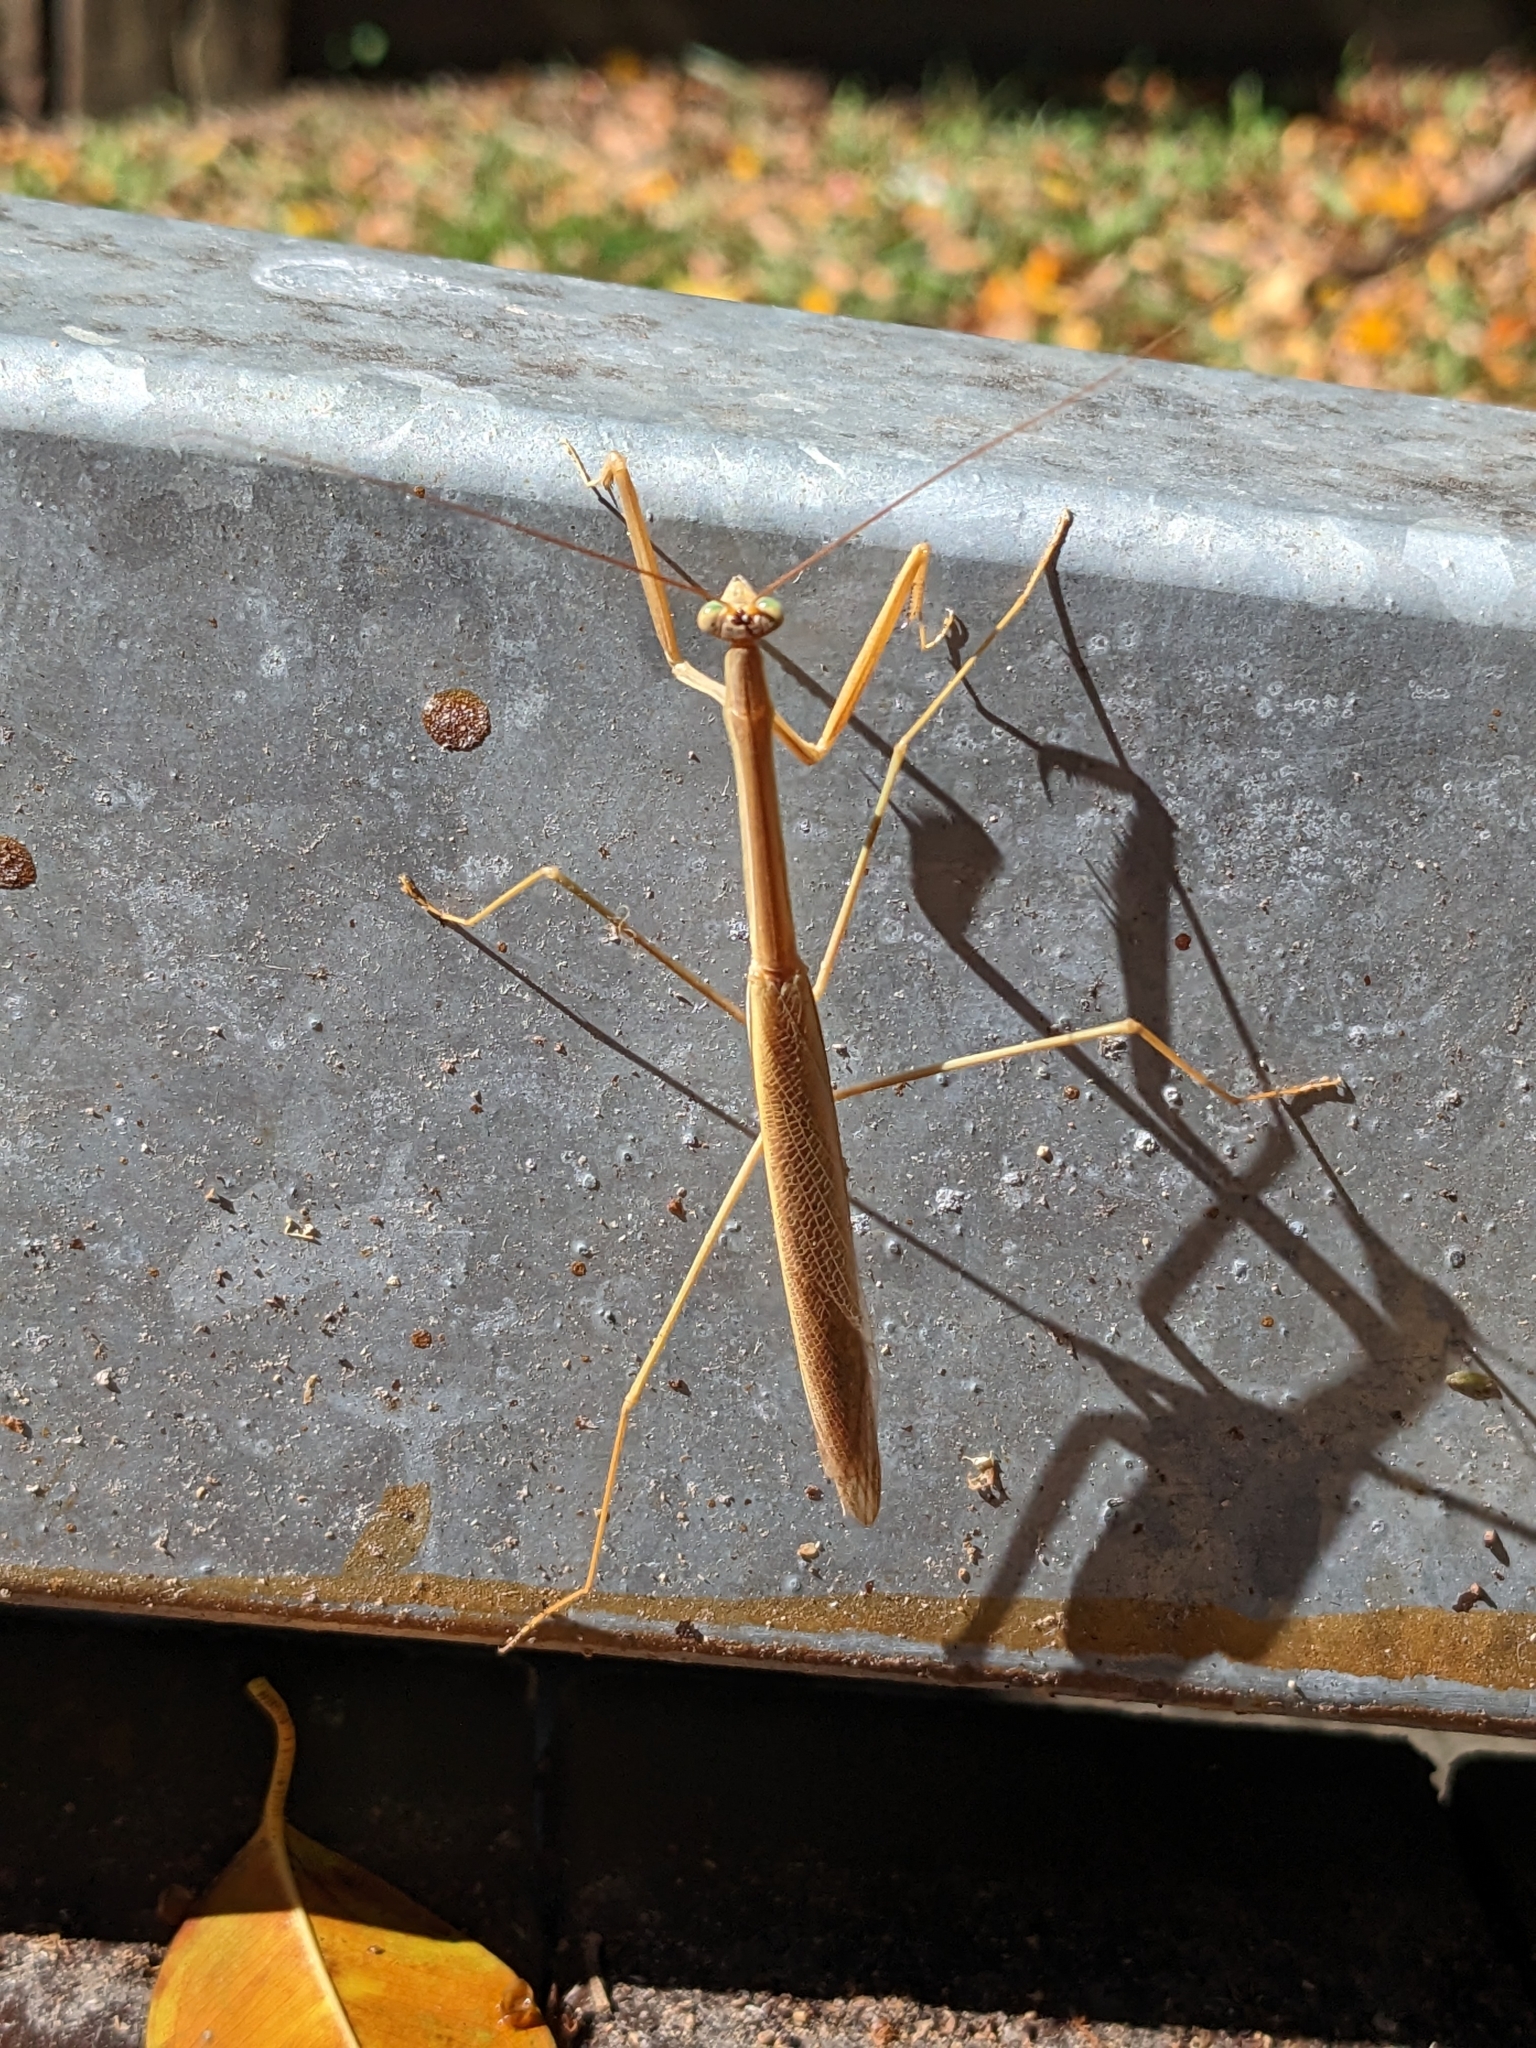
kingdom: Animalia
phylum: Arthropoda
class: Insecta
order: Mantodea
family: Mantidae
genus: Tenodera
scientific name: Tenodera australasiae
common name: Purple-winged mantis
